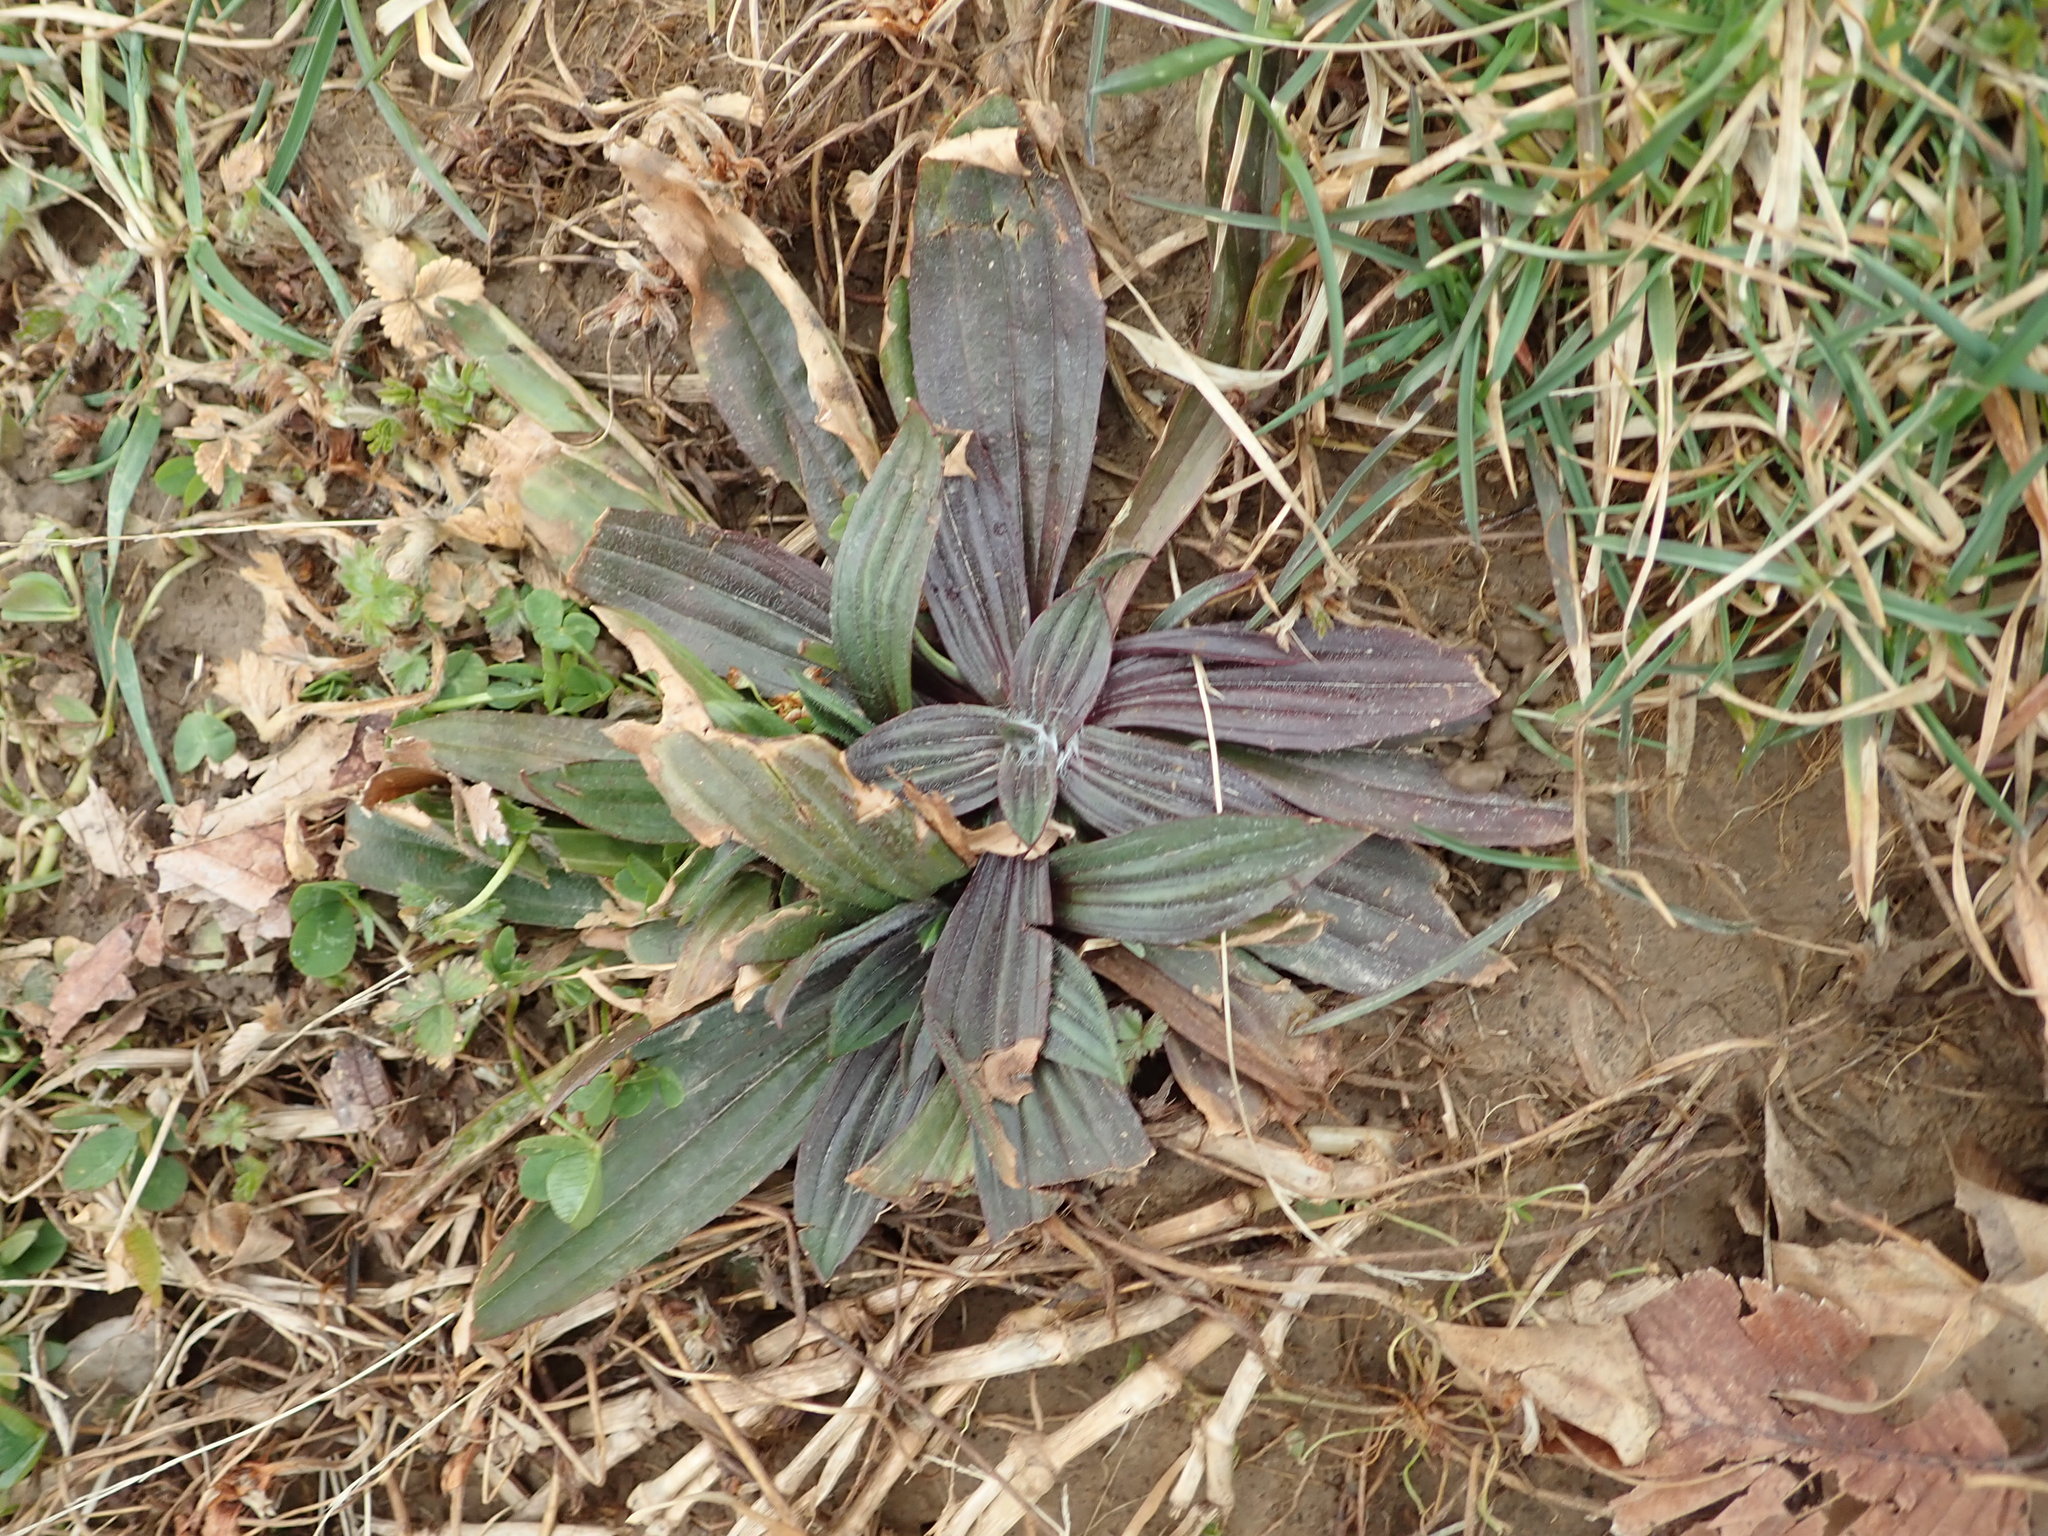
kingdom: Plantae
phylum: Tracheophyta
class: Magnoliopsida
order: Lamiales
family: Plantaginaceae
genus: Plantago
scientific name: Plantago lanceolata
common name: Ribwort plantain
